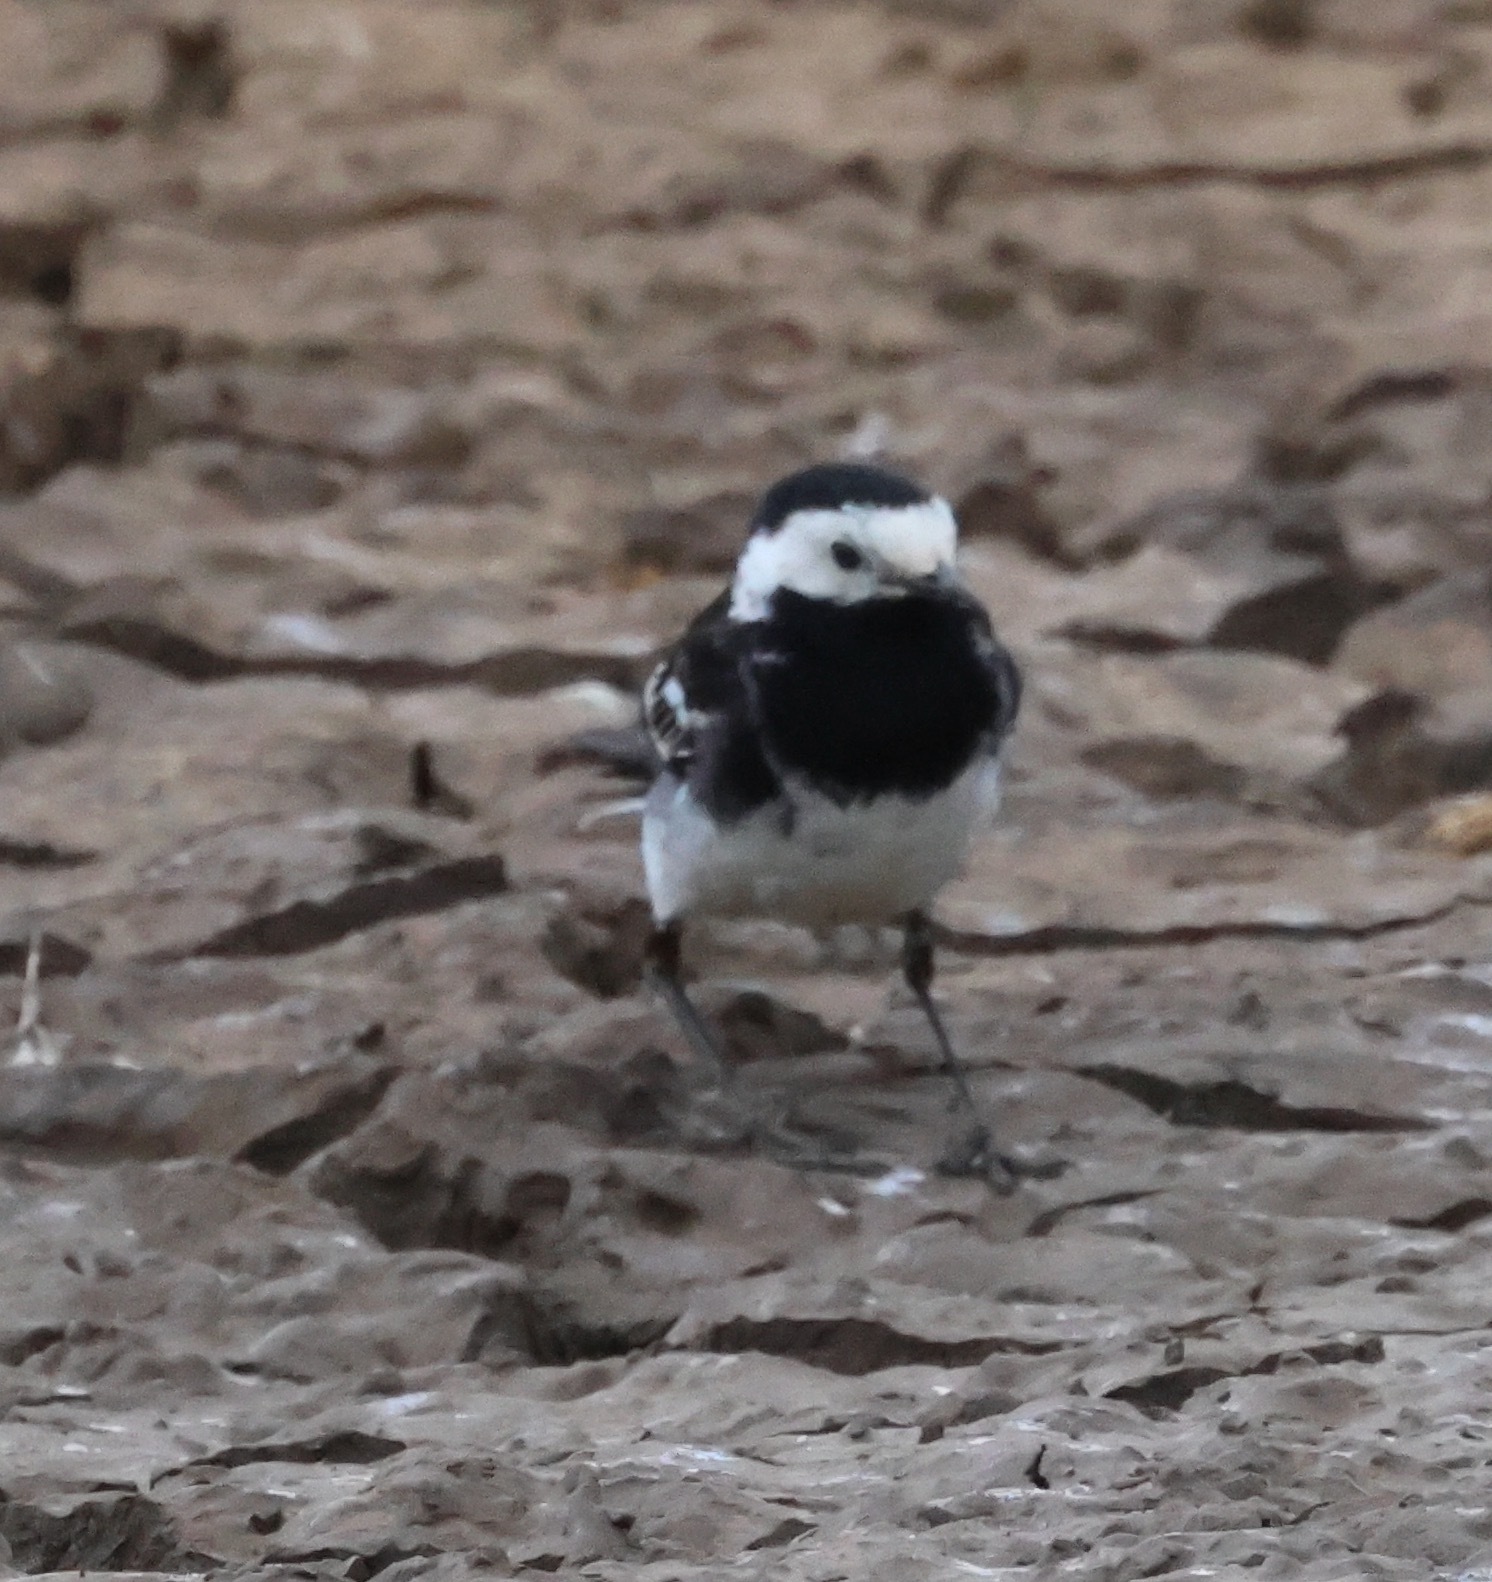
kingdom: Animalia
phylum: Chordata
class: Aves
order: Passeriformes
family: Motacillidae
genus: Motacilla
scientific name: Motacilla alba
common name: White wagtail
